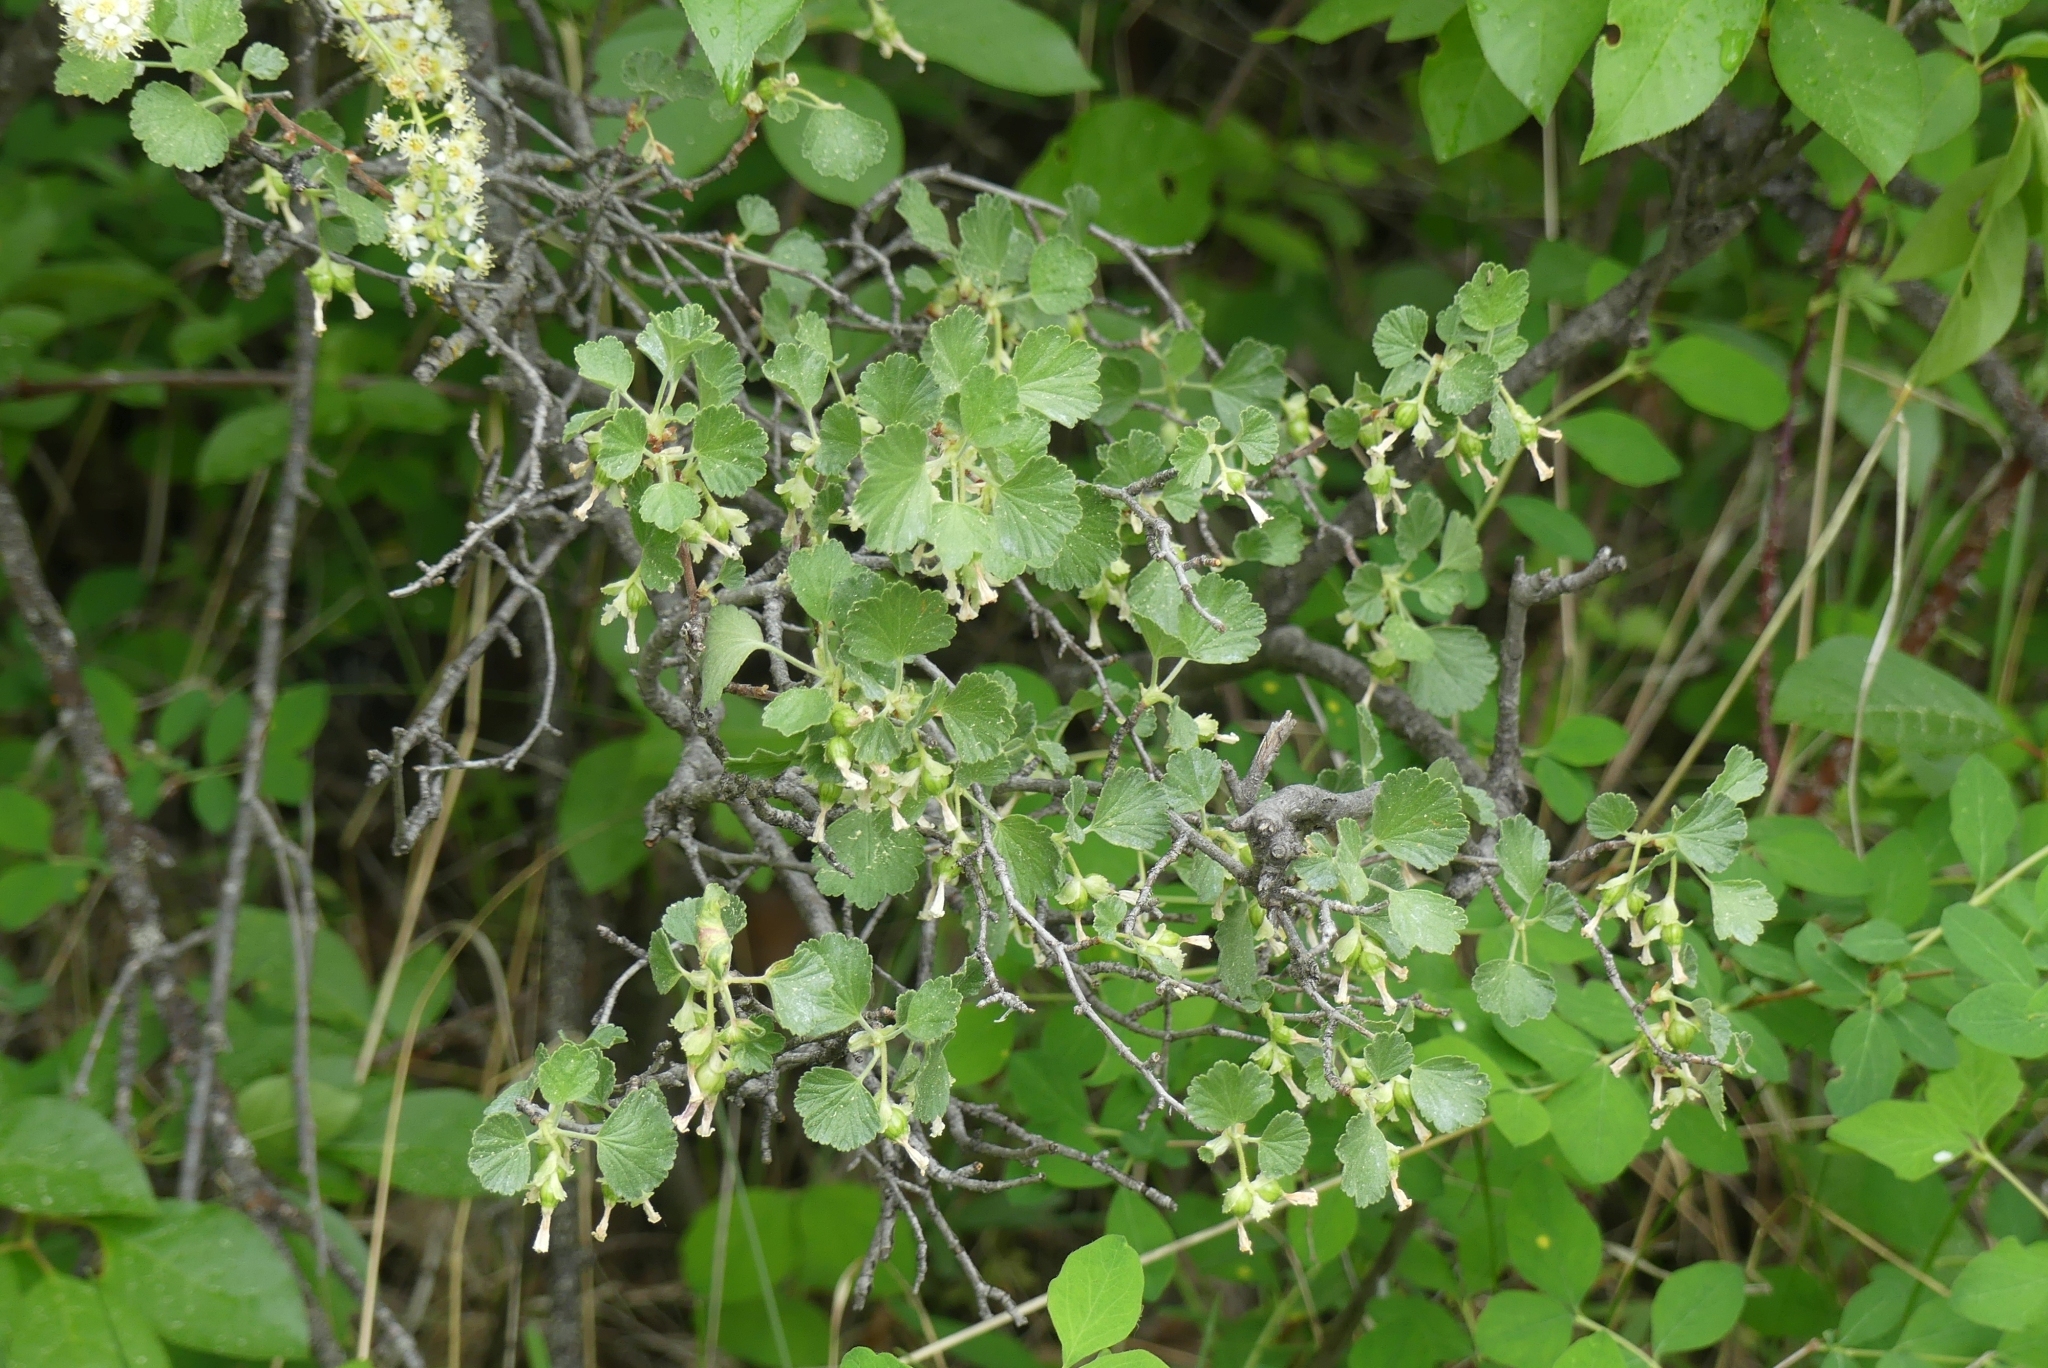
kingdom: Plantae
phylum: Tracheophyta
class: Magnoliopsida
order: Saxifragales
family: Grossulariaceae
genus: Ribes
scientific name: Ribes cereum
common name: Wax currant
